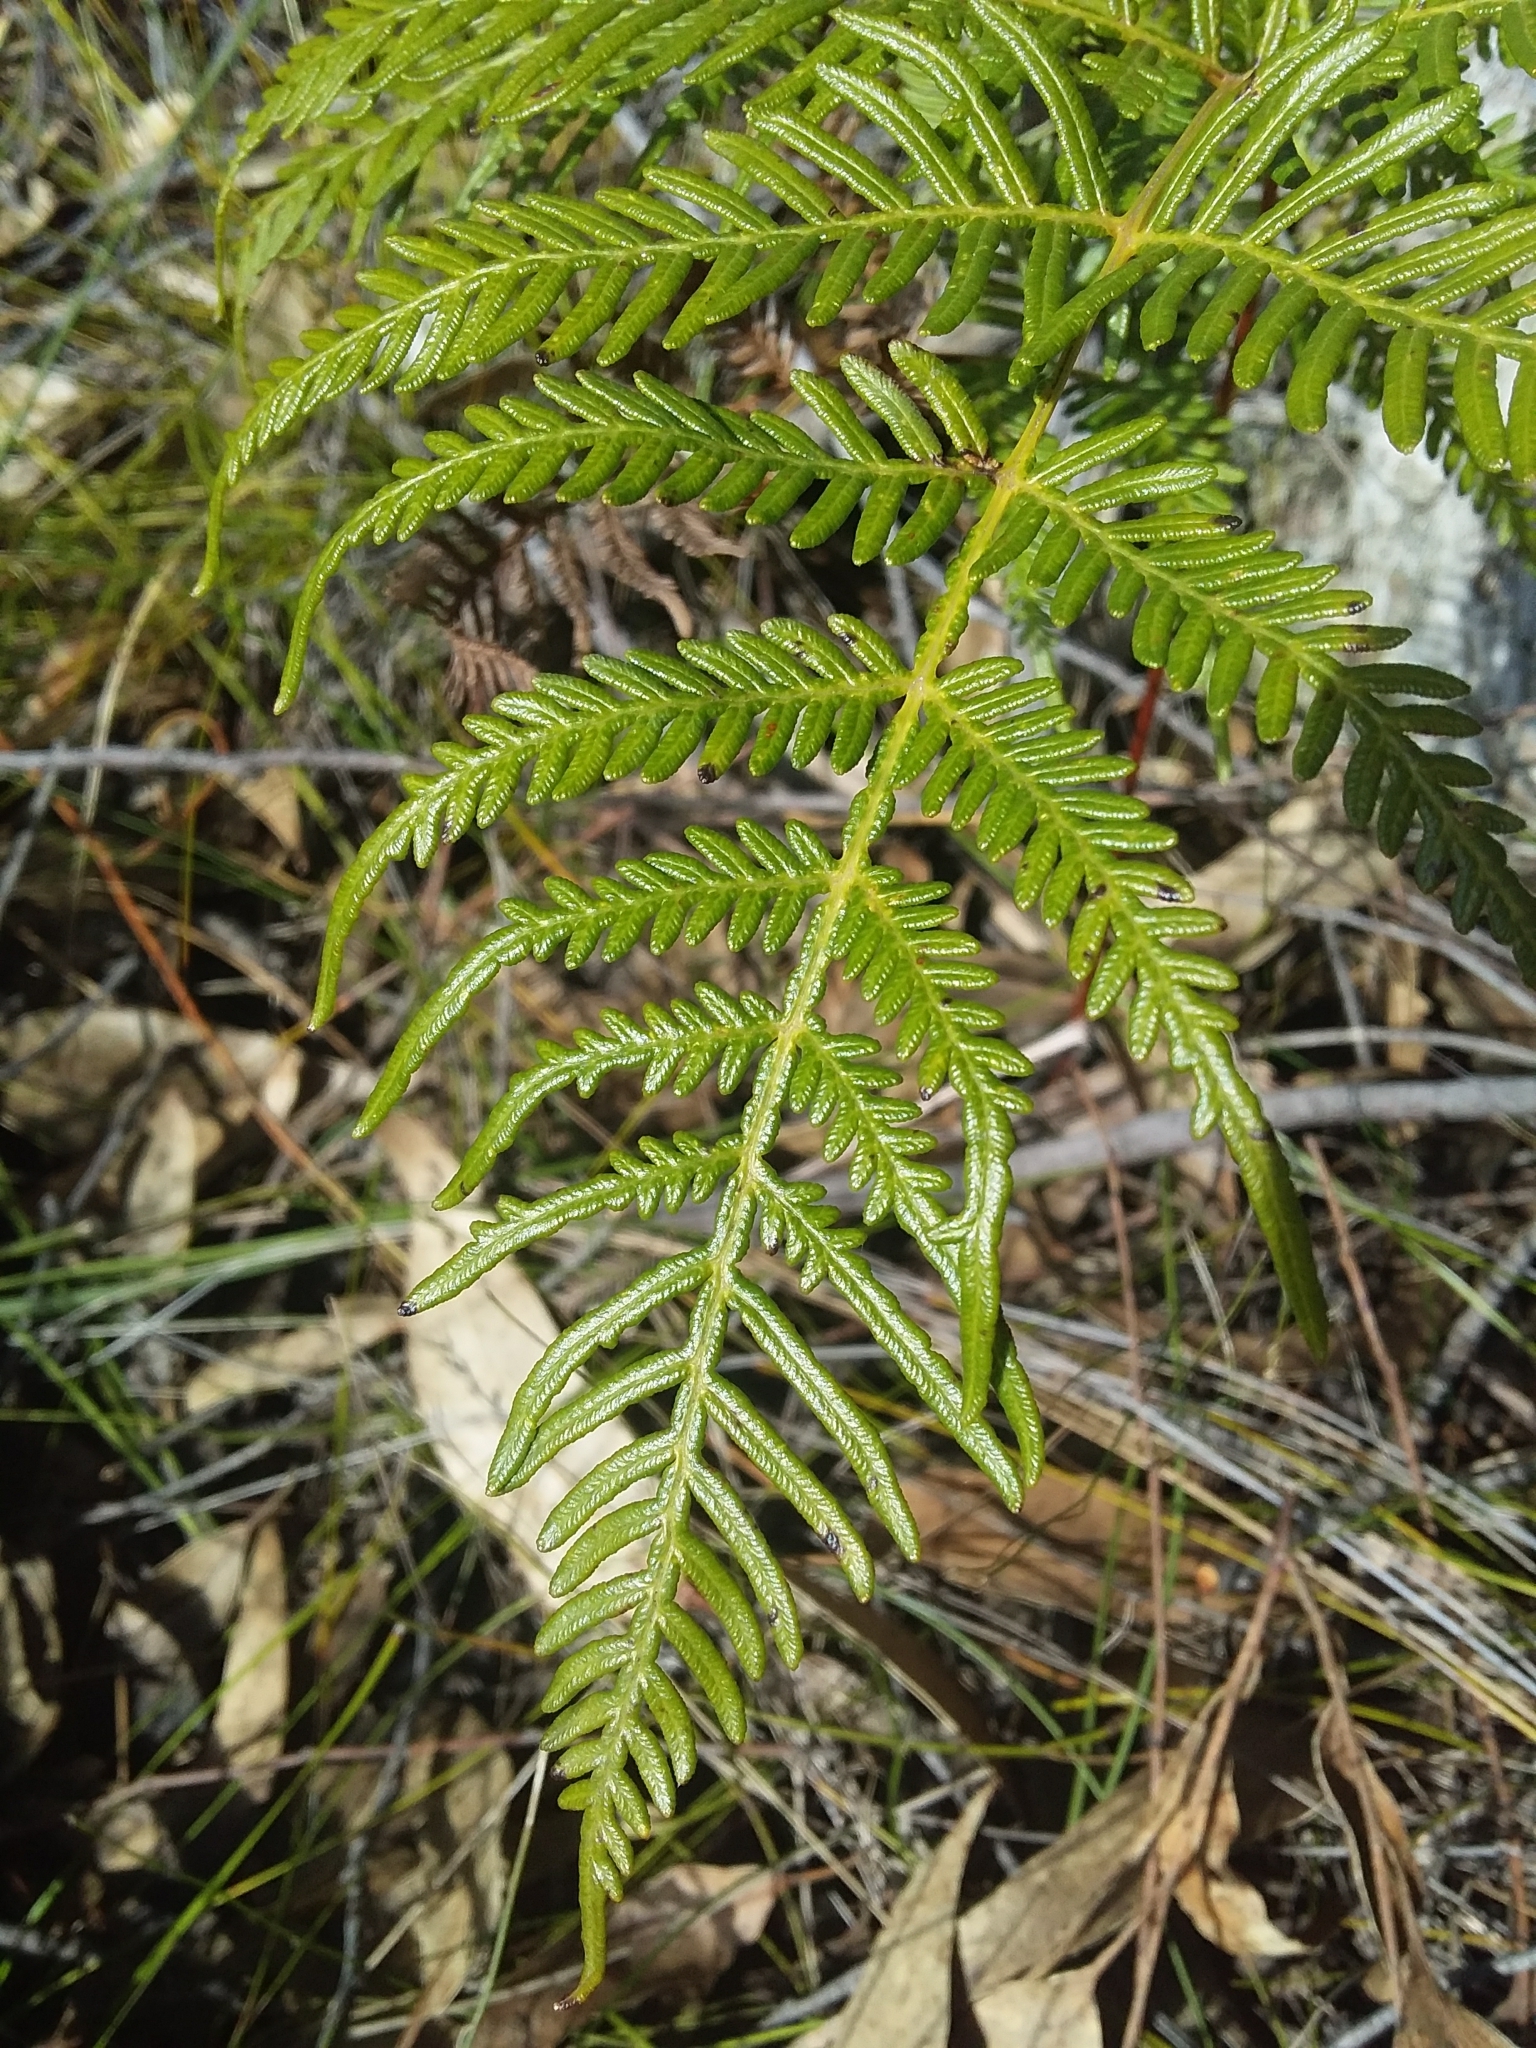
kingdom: Plantae
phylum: Tracheophyta
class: Polypodiopsida
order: Polypodiales
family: Dennstaedtiaceae
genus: Pteridium
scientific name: Pteridium esculentum
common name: Bracken fern
